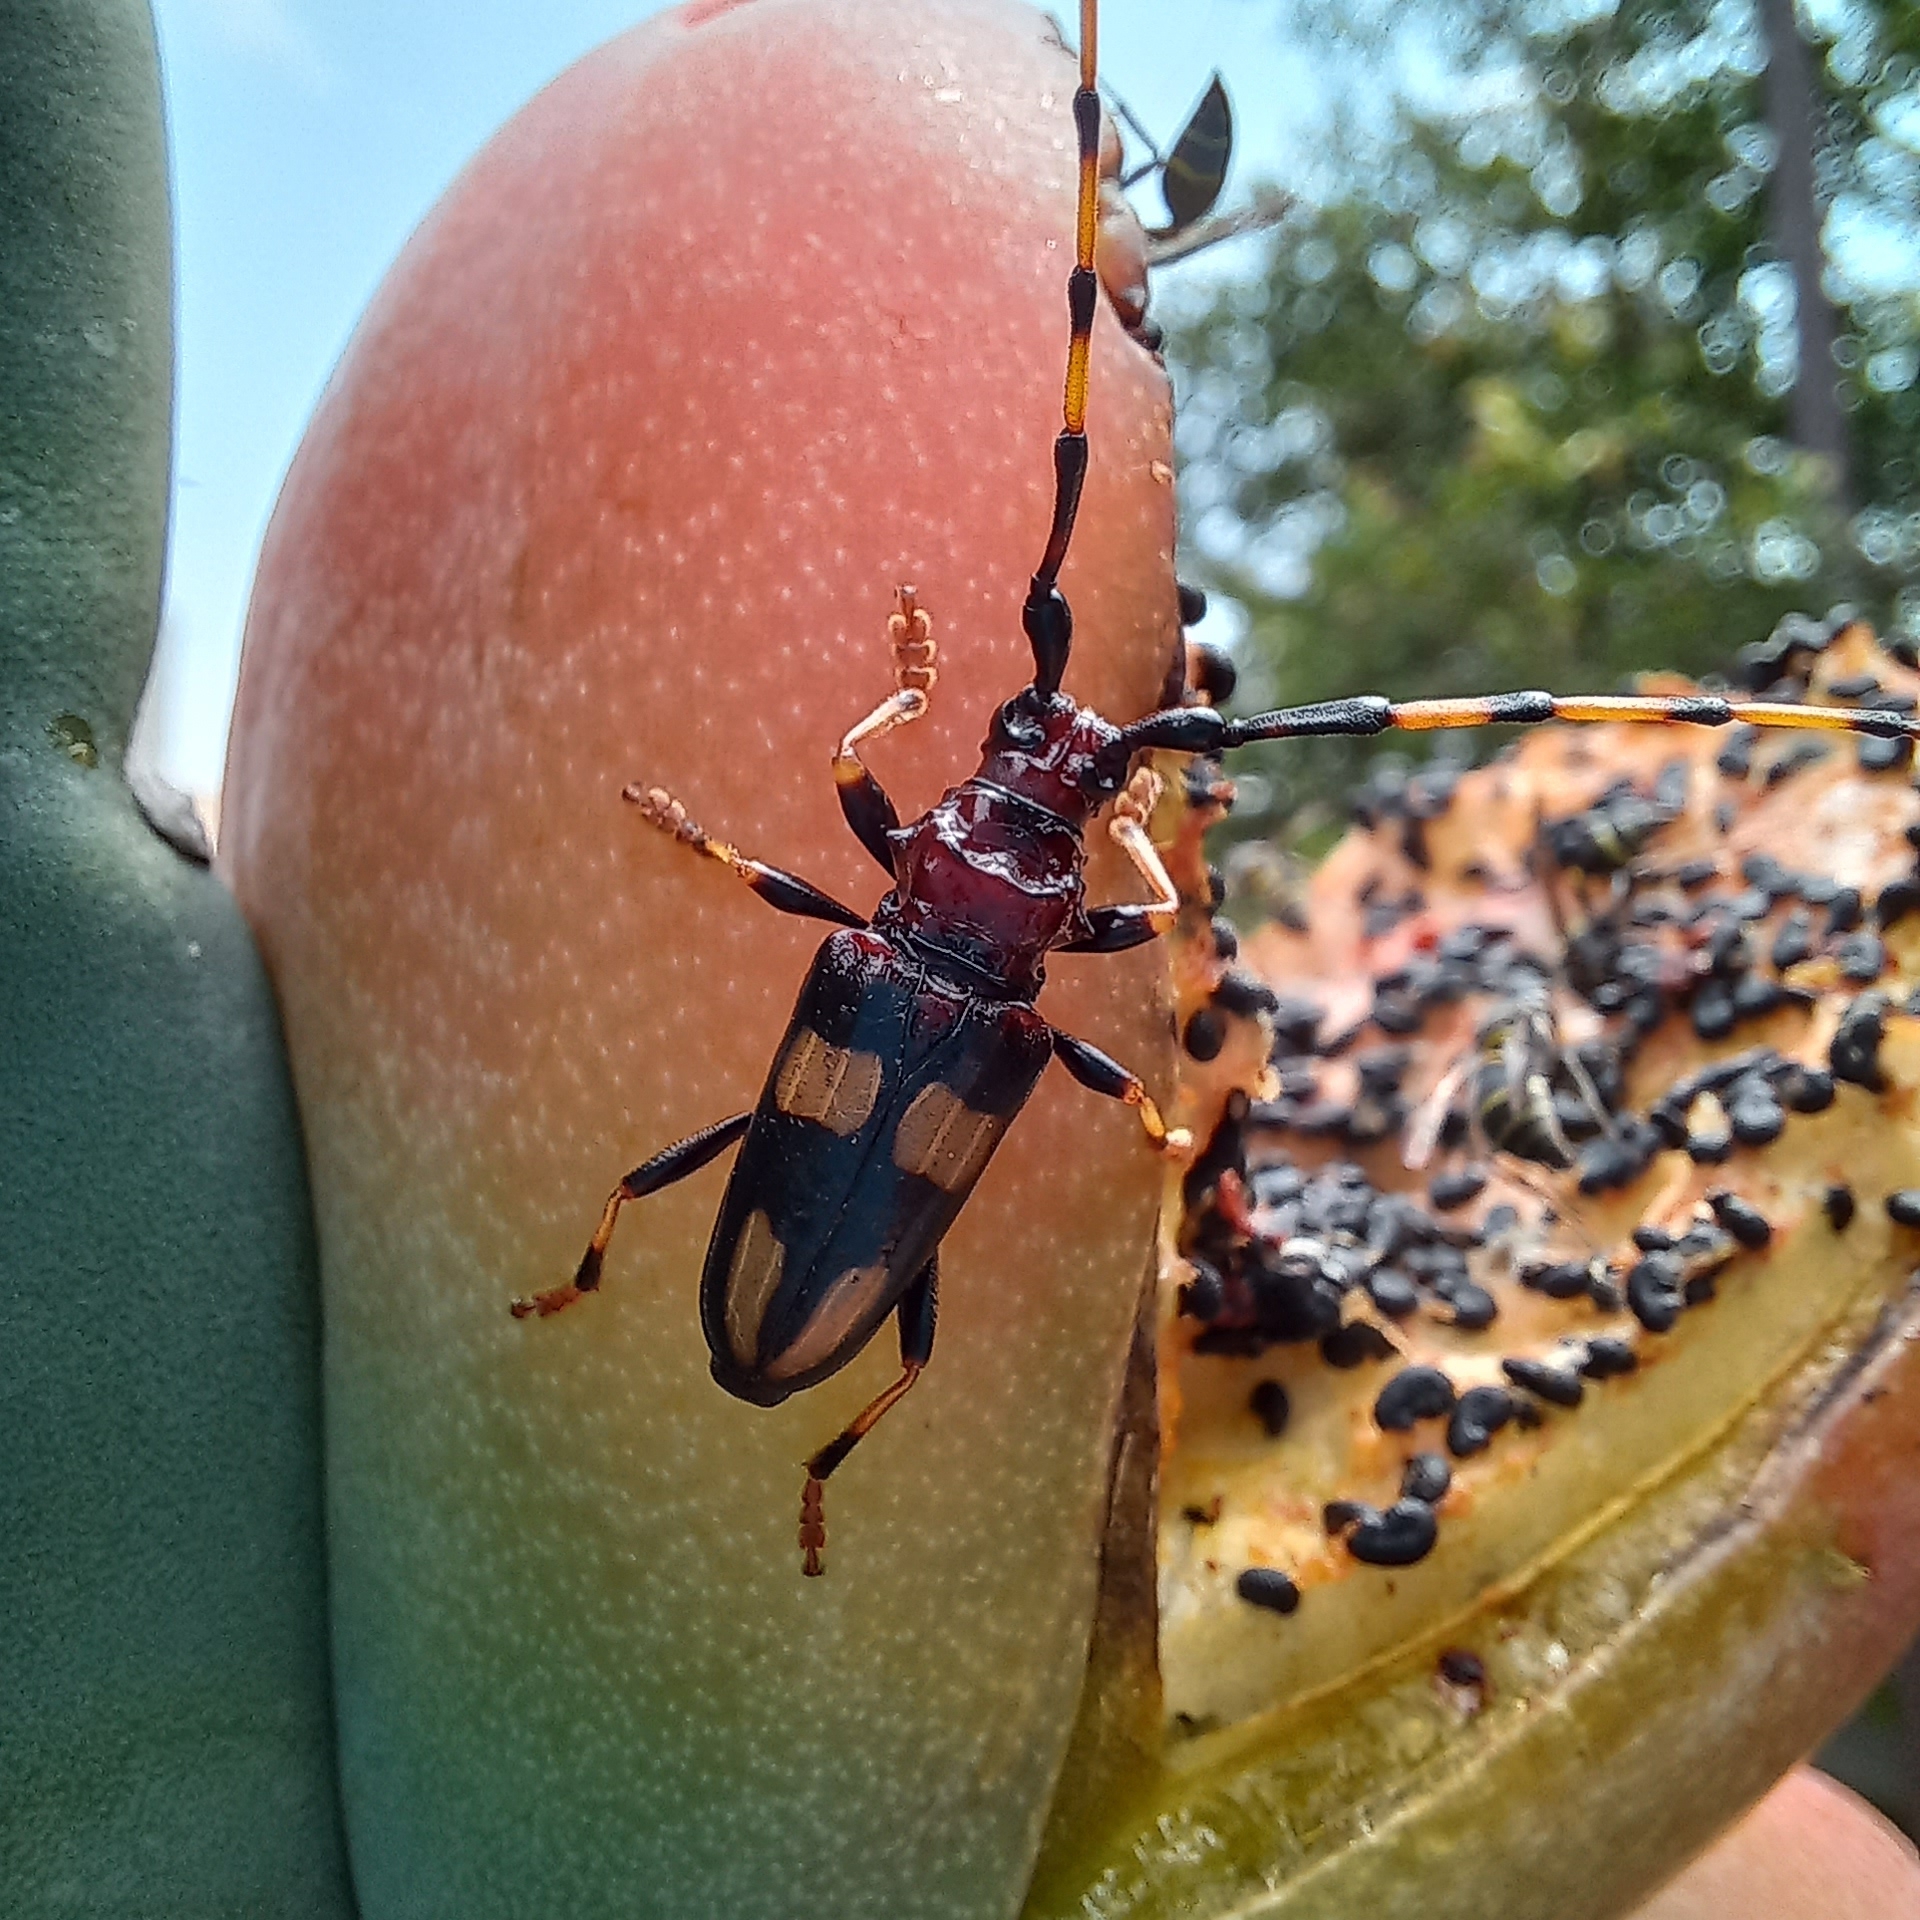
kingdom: Animalia
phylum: Arthropoda
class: Insecta
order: Coleoptera
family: Cerambycidae
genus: Trachyderes
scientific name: Trachyderes mandibularis
